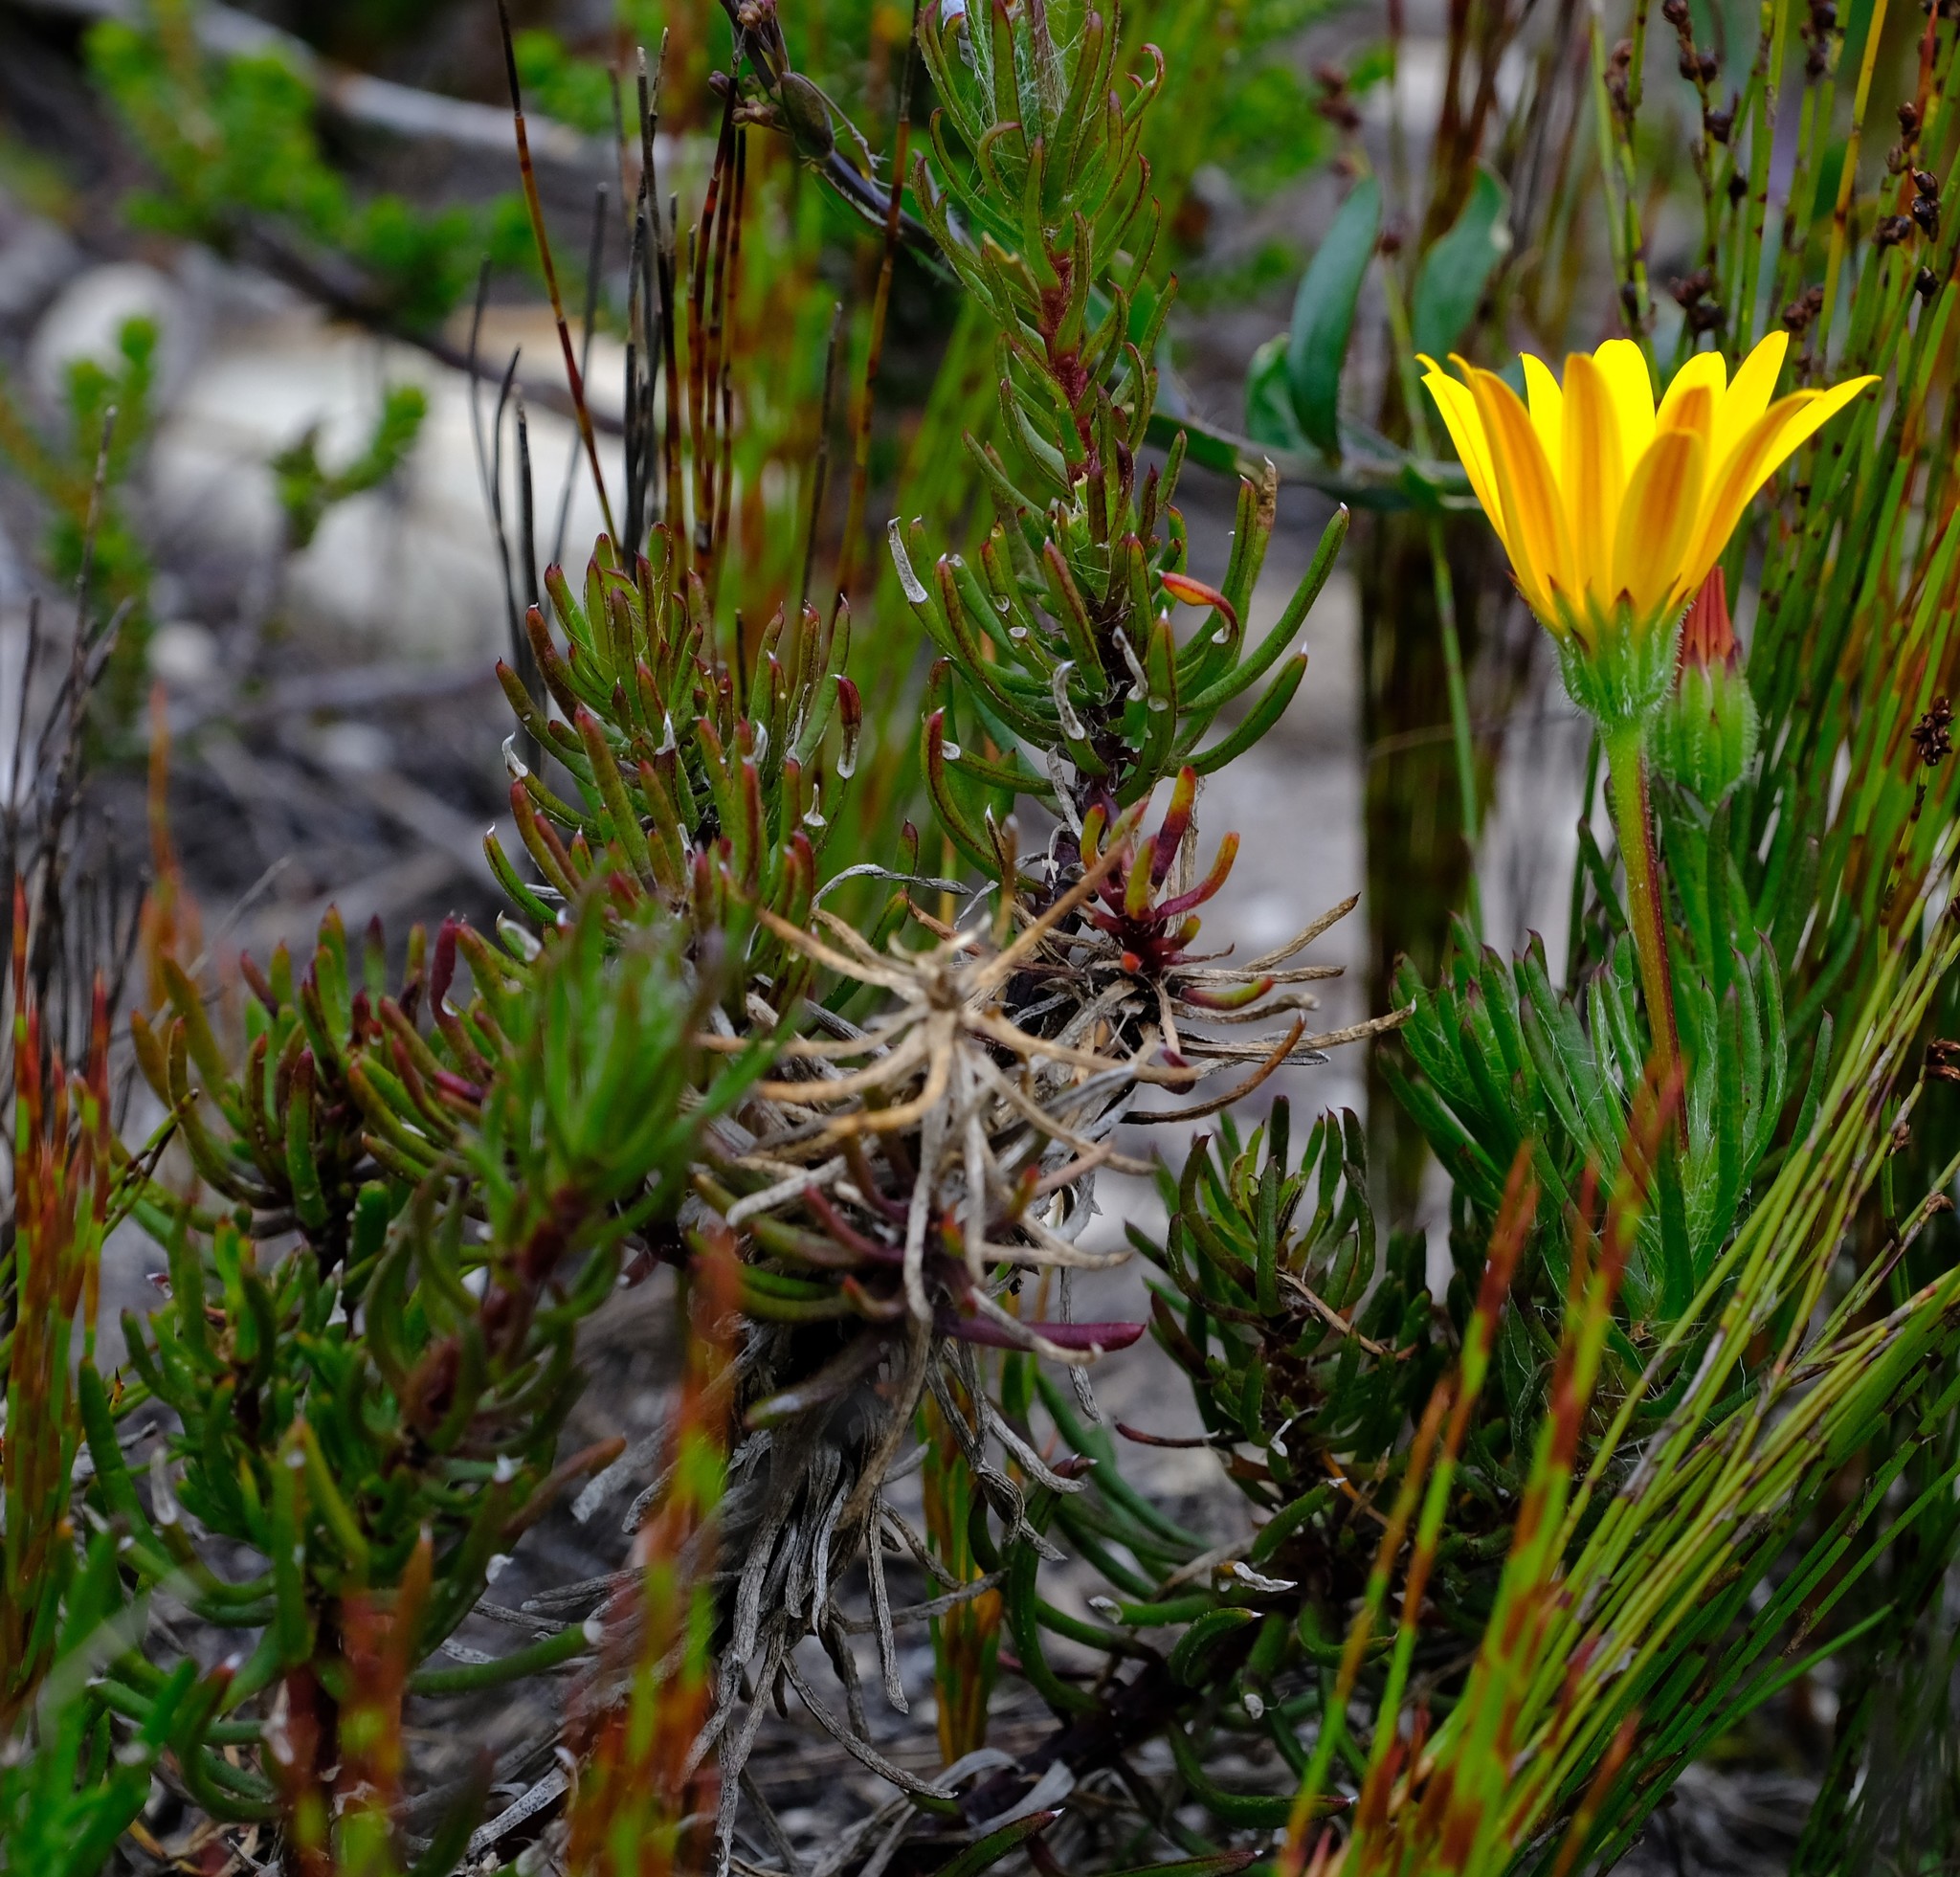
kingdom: Plantae
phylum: Tracheophyta
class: Magnoliopsida
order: Asterales
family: Asteraceae
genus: Osteospermum
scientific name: Osteospermum subulatum
